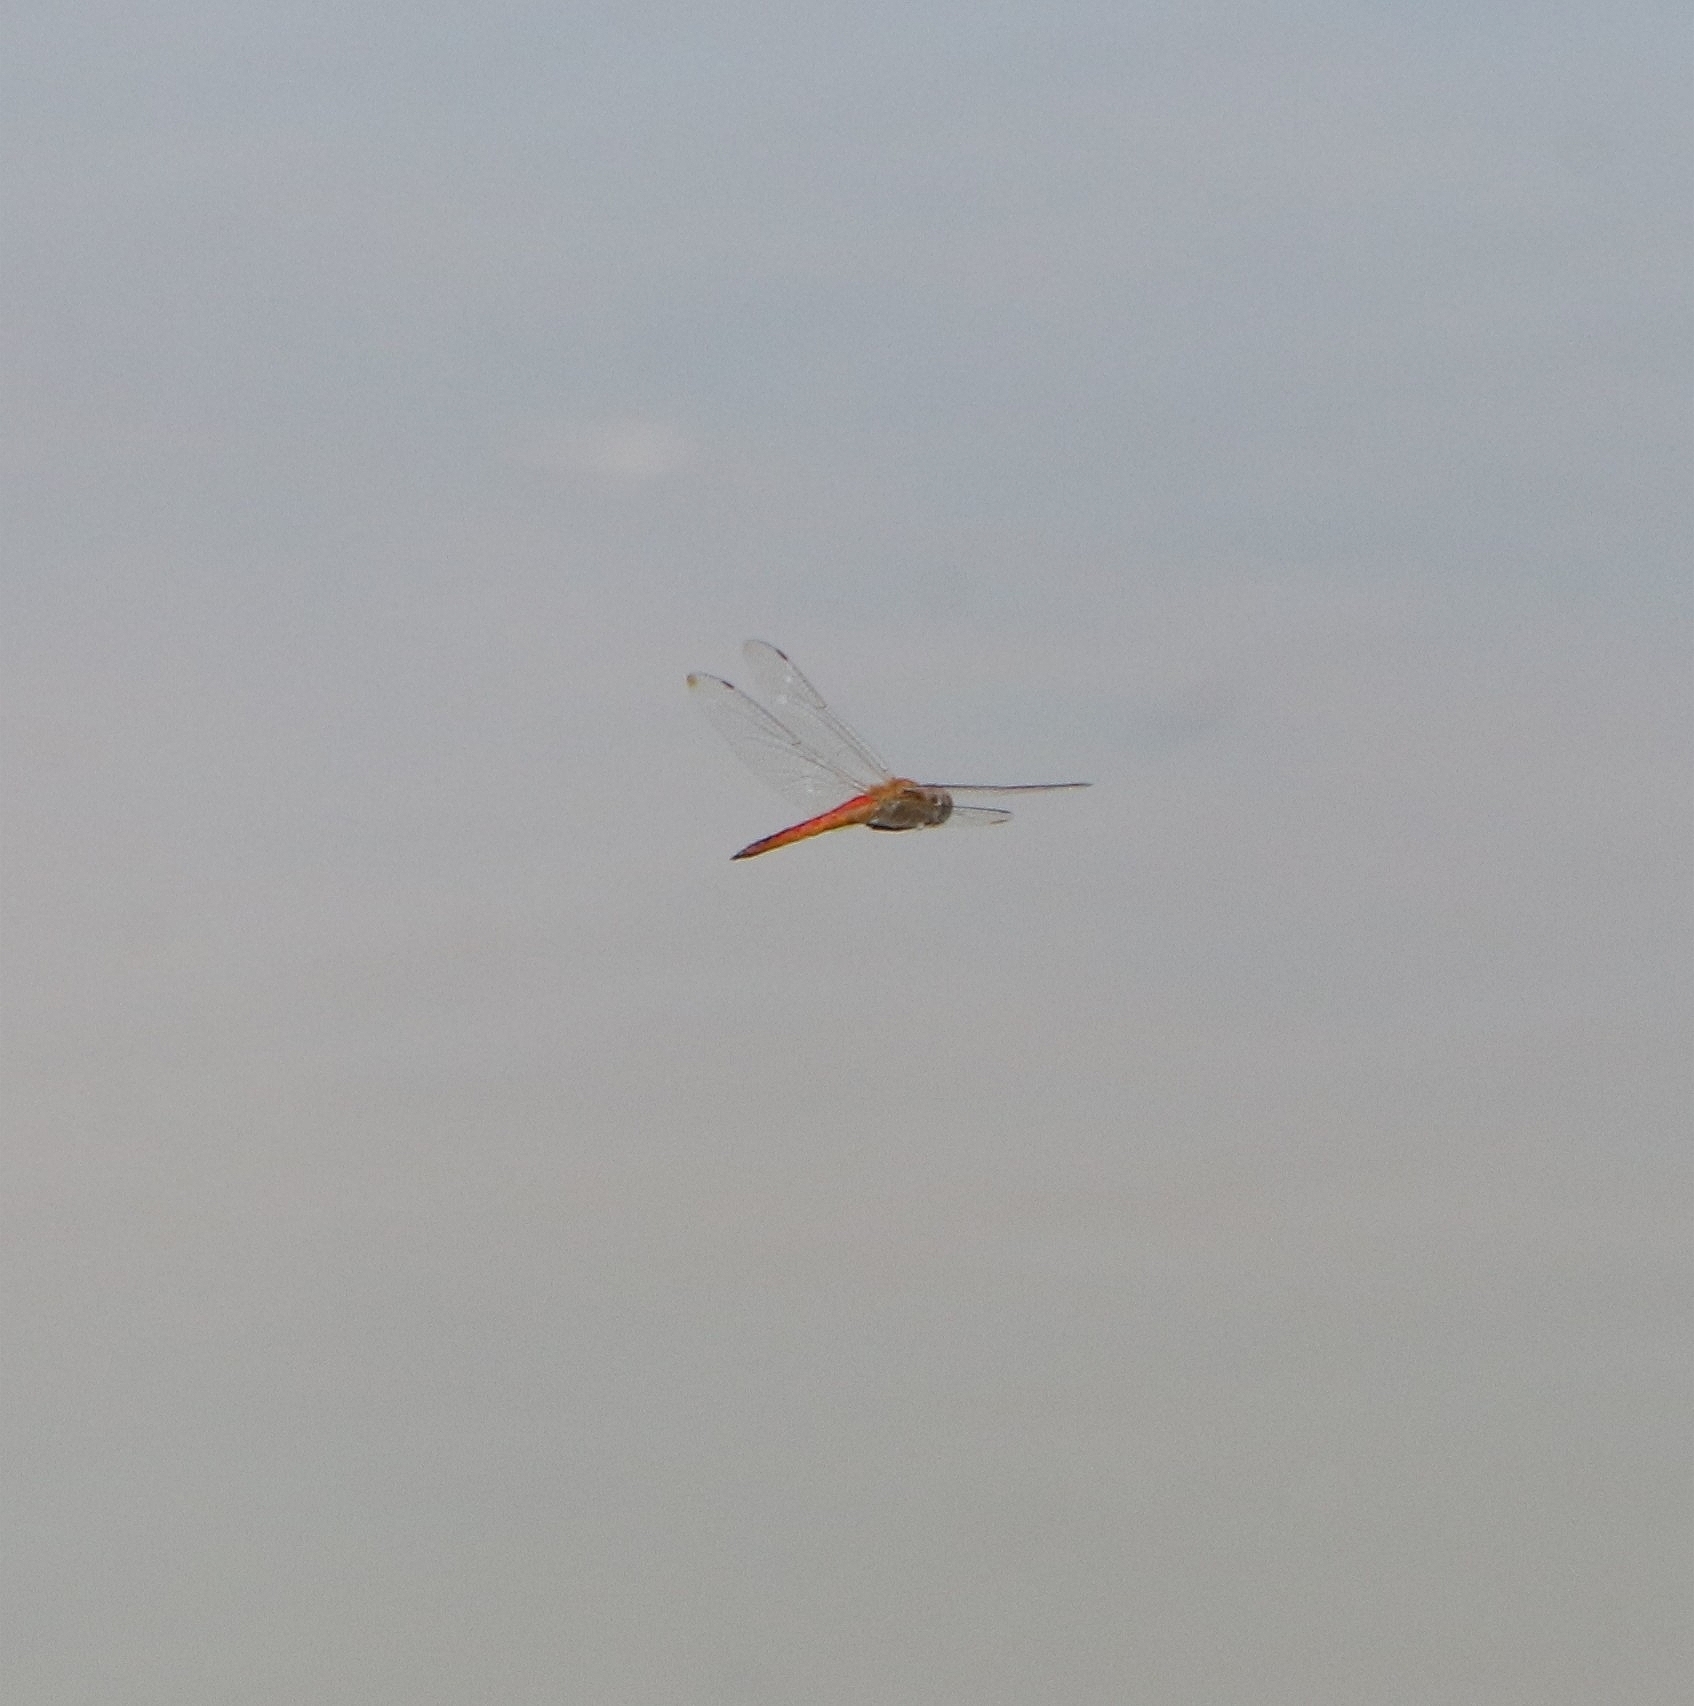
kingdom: Animalia
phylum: Arthropoda
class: Insecta
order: Odonata
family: Libellulidae
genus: Pantala
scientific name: Pantala flavescens
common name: Wandering glider
